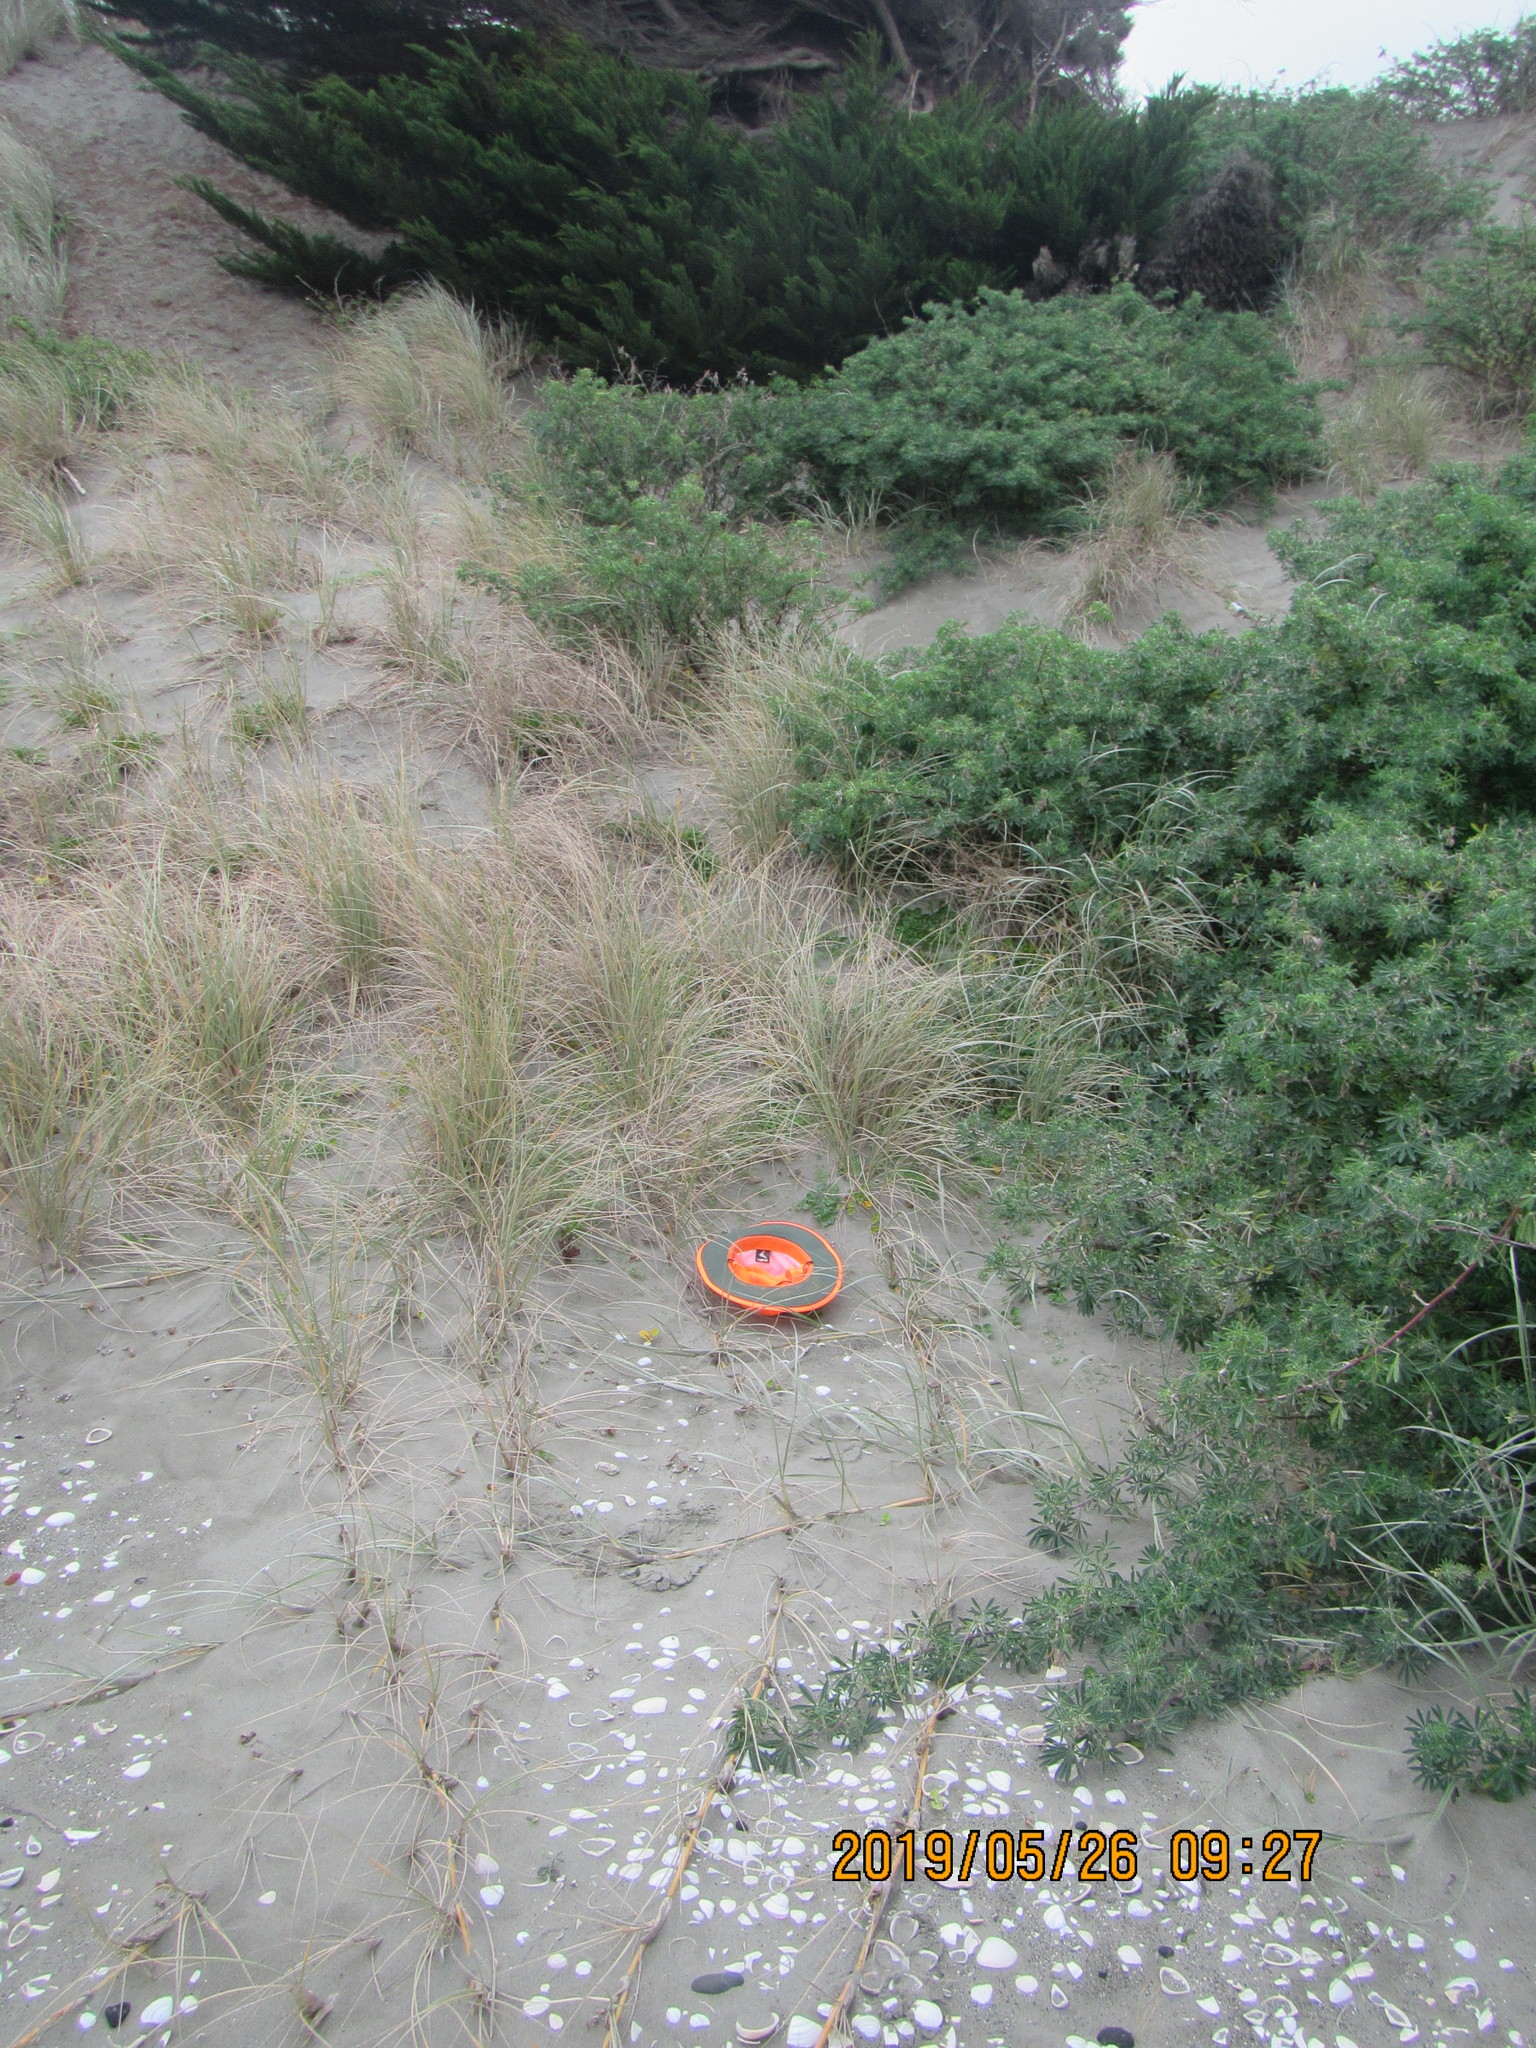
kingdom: Plantae
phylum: Tracheophyta
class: Magnoliopsida
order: Solanales
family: Convolvulaceae
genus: Calystegia
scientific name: Calystegia soldanella
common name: Sea bindweed
